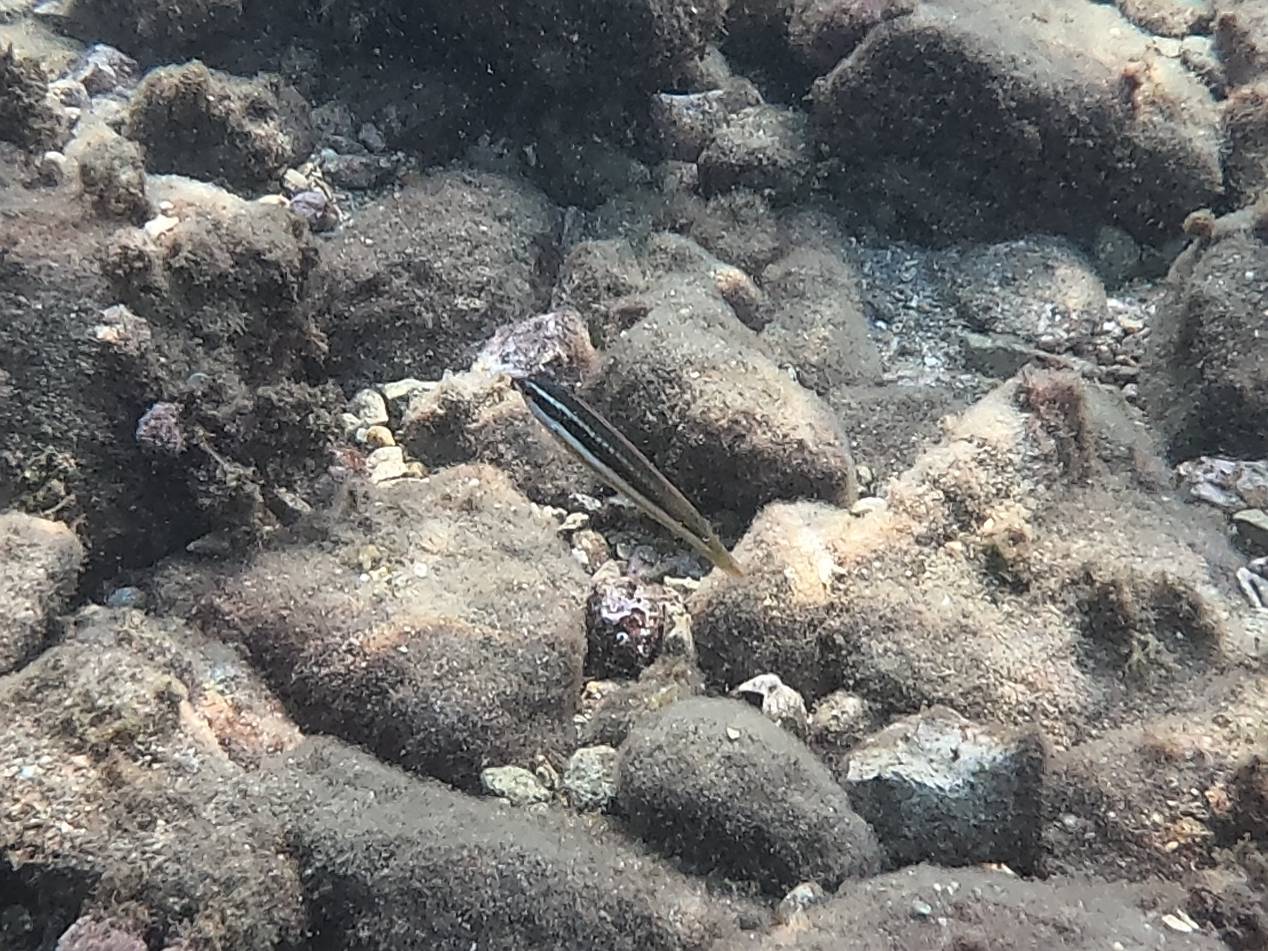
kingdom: Animalia
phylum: Chordata
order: Perciformes
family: Labridae
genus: Coris
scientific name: Coris julis
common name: Rainbow wrasse
